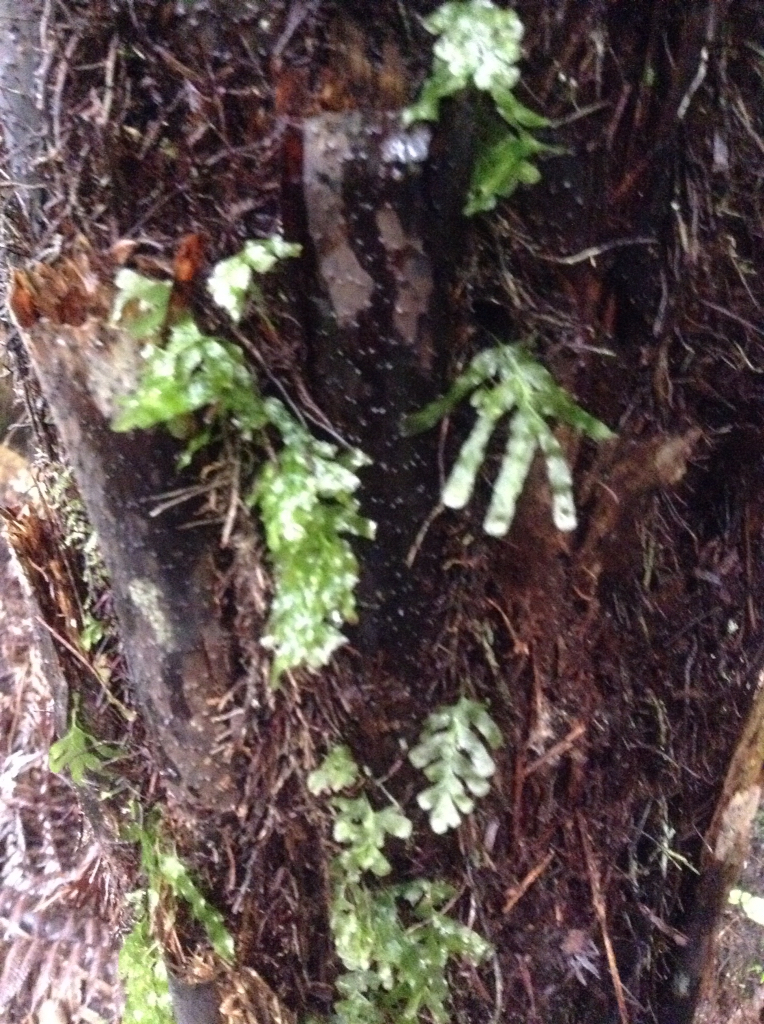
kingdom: Plantae
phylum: Tracheophyta
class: Polypodiopsida
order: Hymenophyllales
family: Hymenophyllaceae
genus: Polyphlebium
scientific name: Polyphlebium venosum
